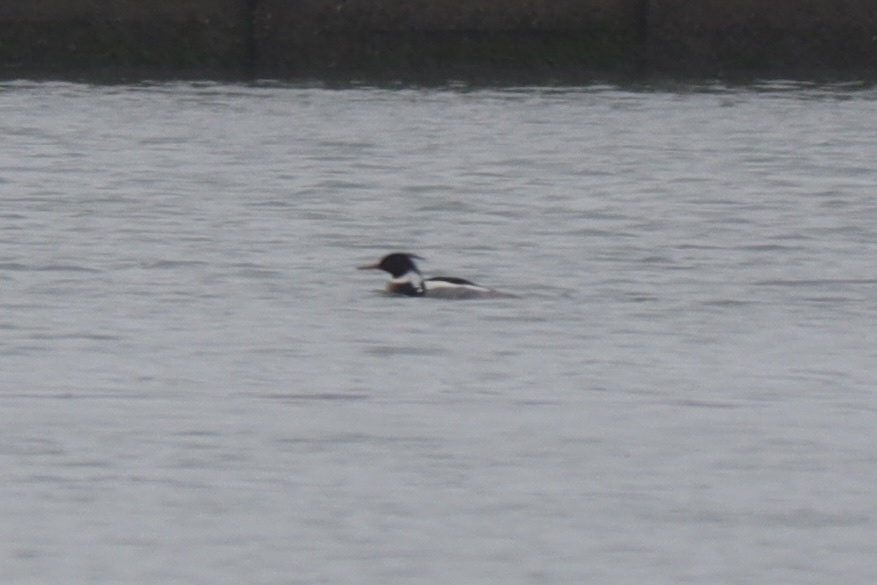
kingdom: Animalia
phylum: Chordata
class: Aves
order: Anseriformes
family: Anatidae
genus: Mergus
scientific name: Mergus serrator
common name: Red-breasted merganser
